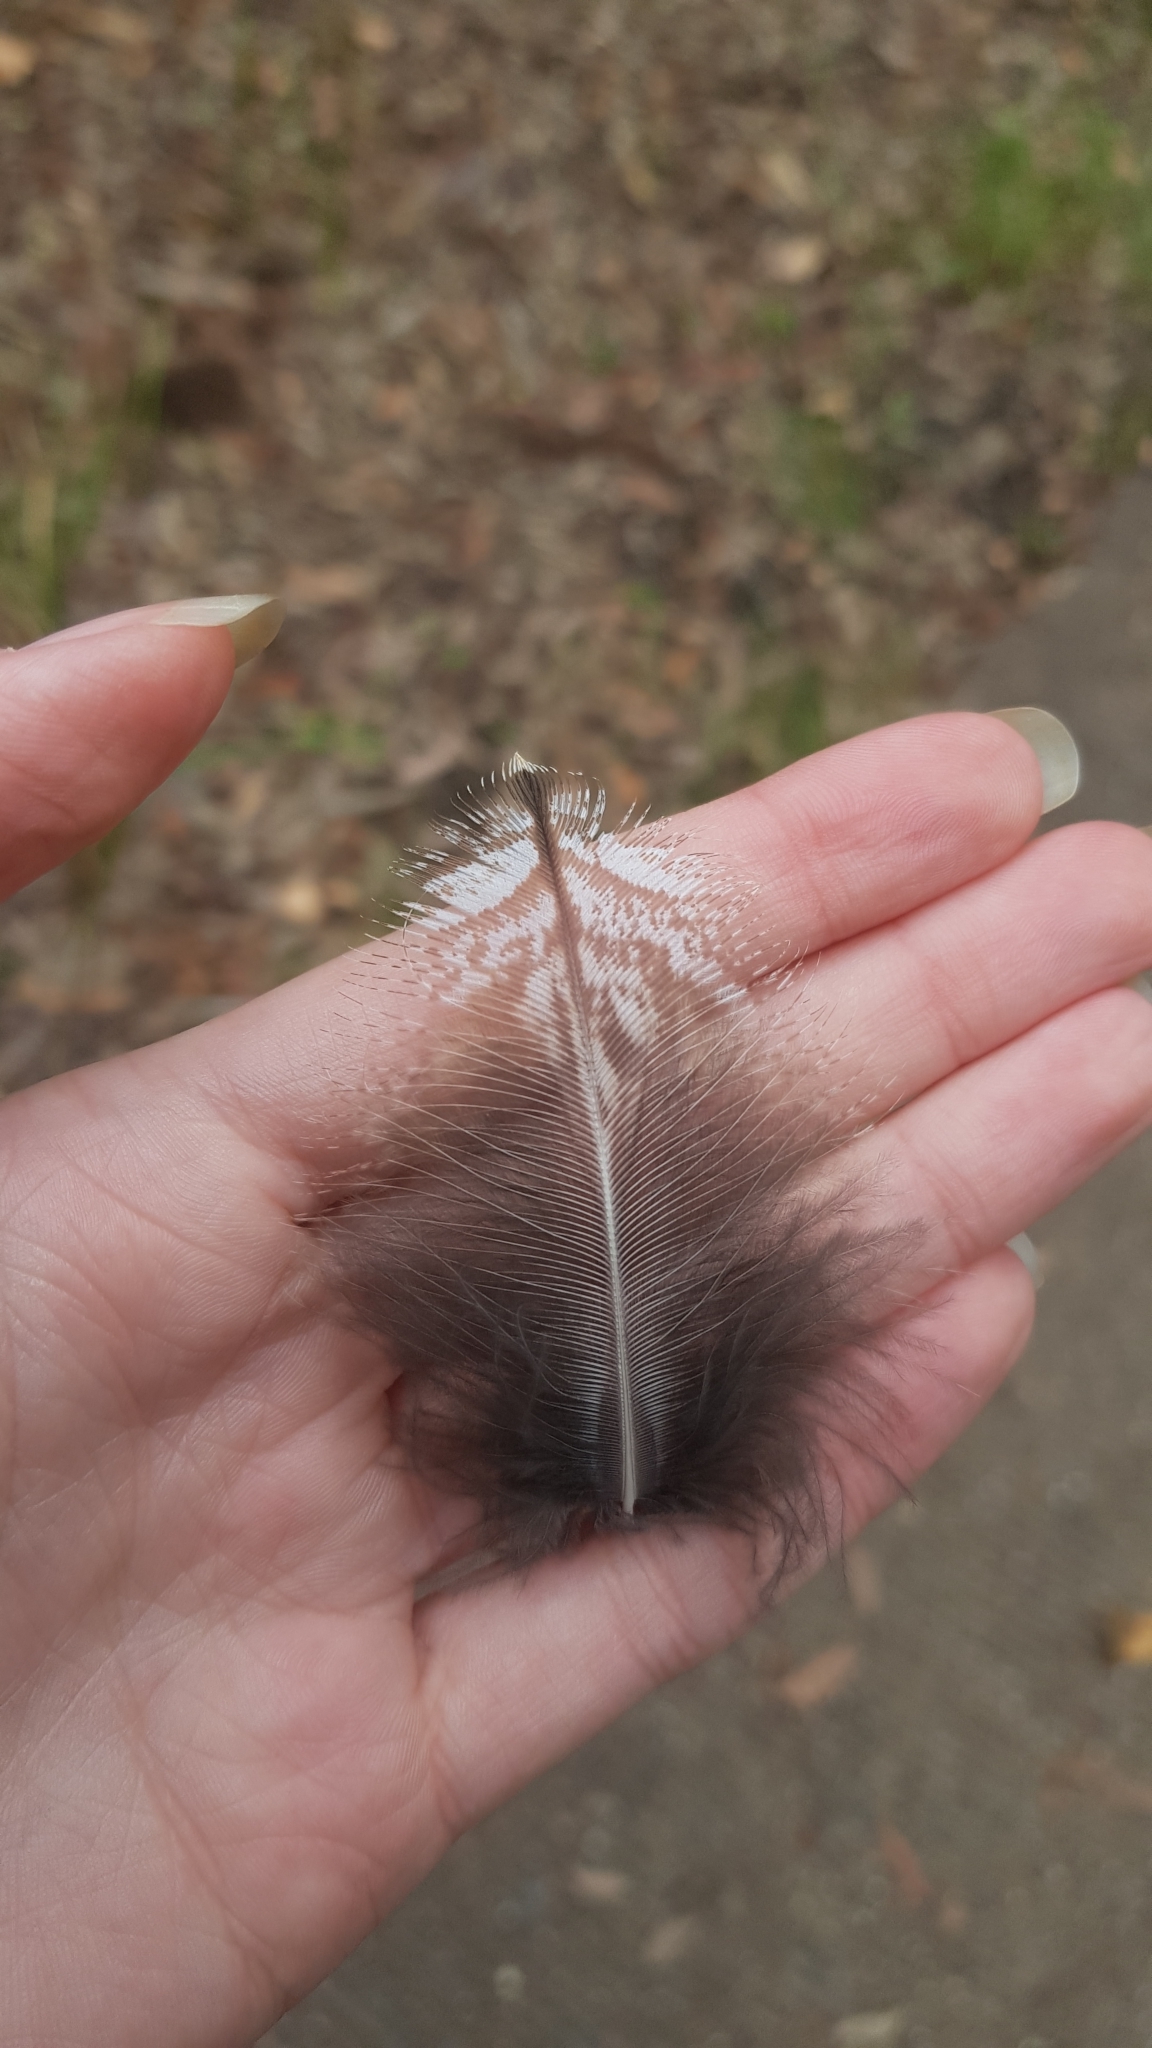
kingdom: Animalia
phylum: Chordata
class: Aves
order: Caprimulgiformes
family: Podargidae
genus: Podargus
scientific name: Podargus strigoides
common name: Tawny frogmouth
